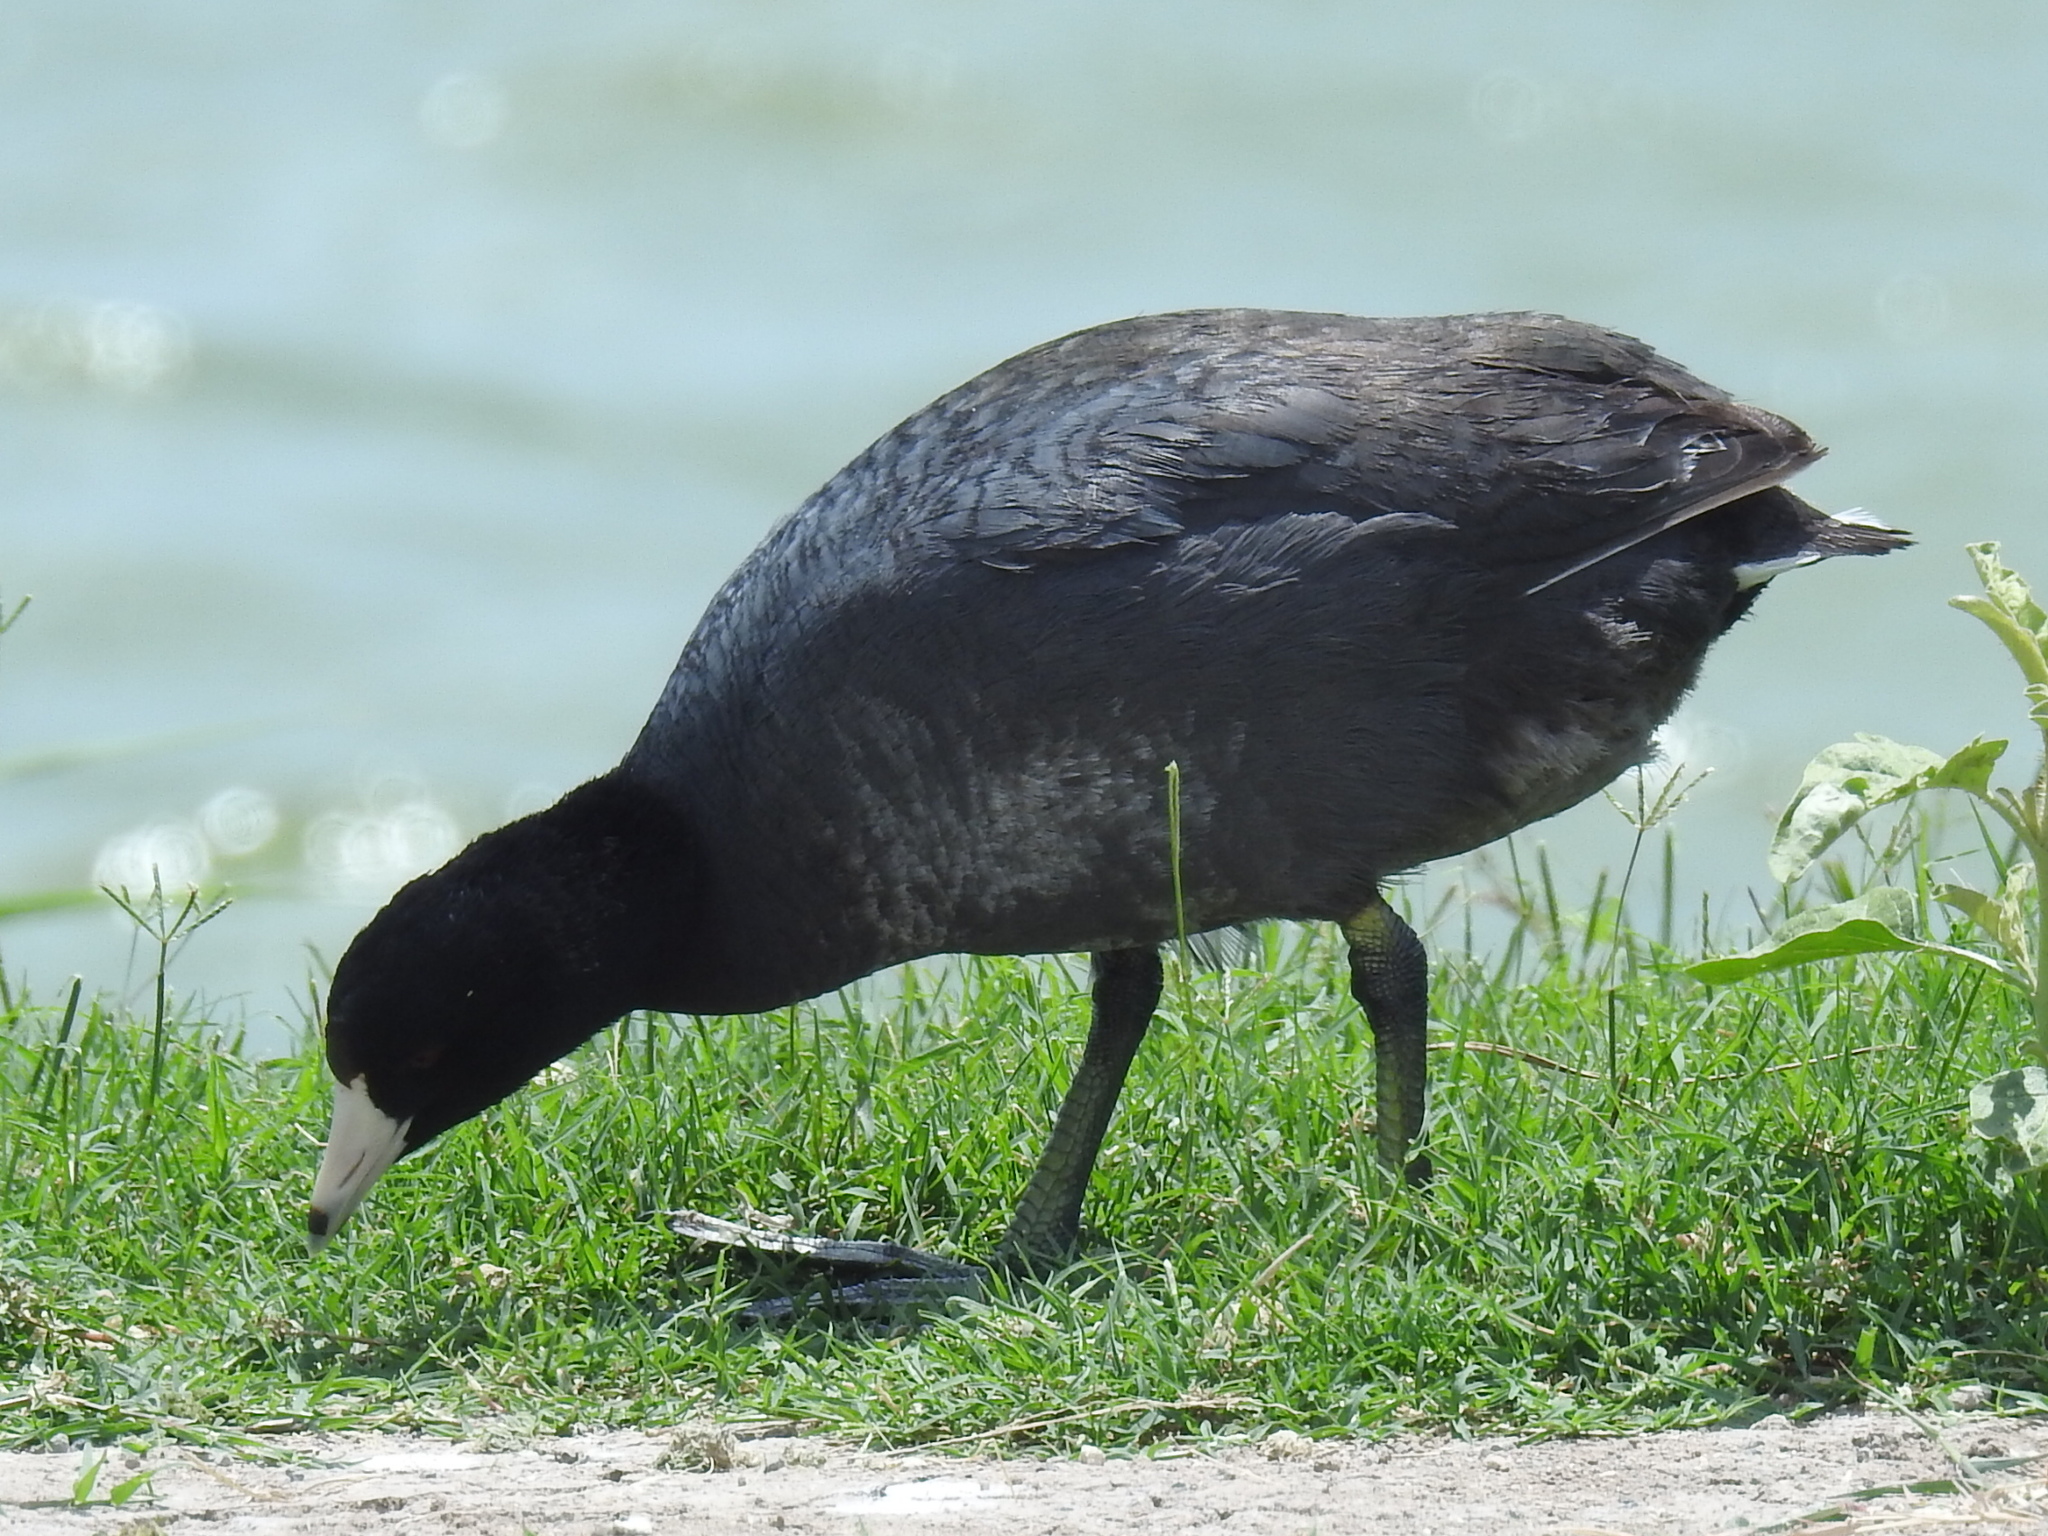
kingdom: Animalia
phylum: Chordata
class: Aves
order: Gruiformes
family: Rallidae
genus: Fulica
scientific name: Fulica americana
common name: American coot
